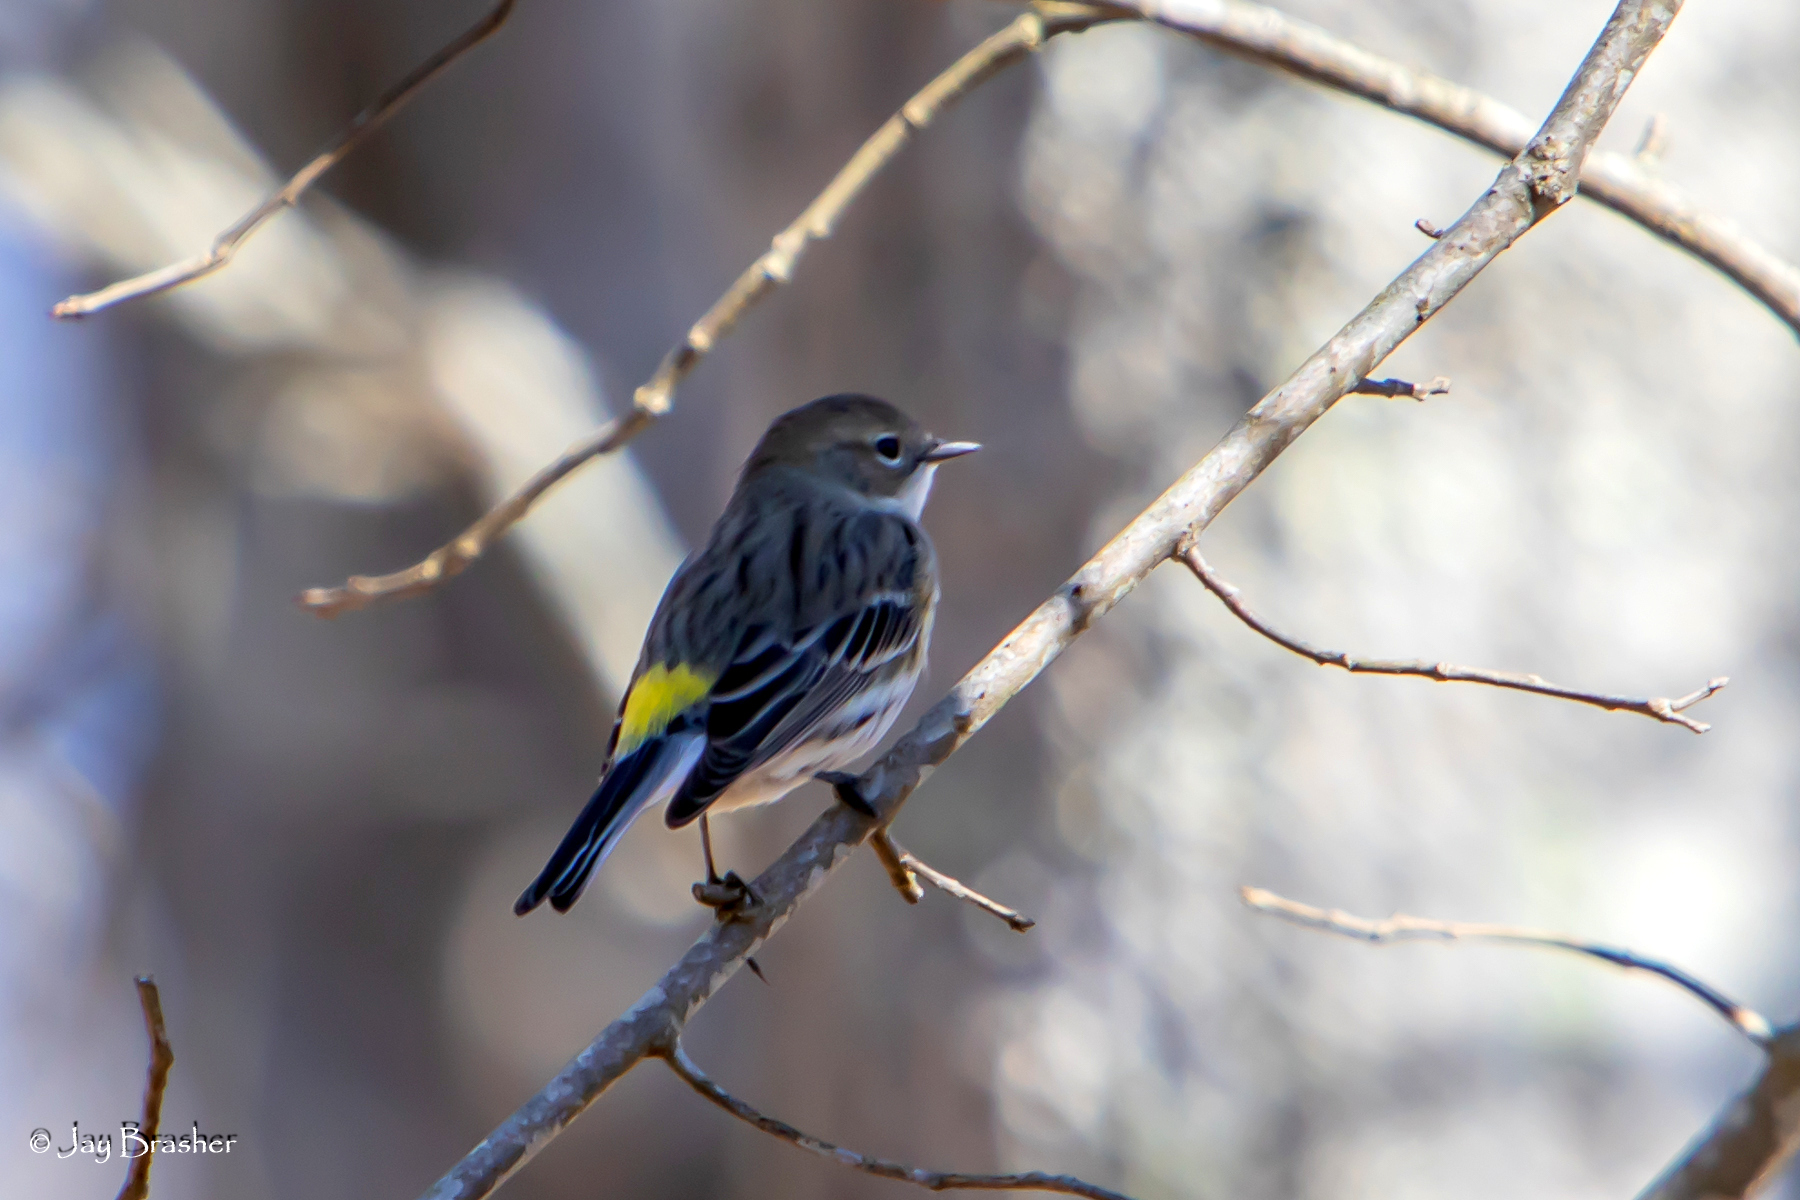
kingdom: Animalia
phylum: Chordata
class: Aves
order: Passeriformes
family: Parulidae
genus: Setophaga
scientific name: Setophaga coronata
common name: Myrtle warbler
